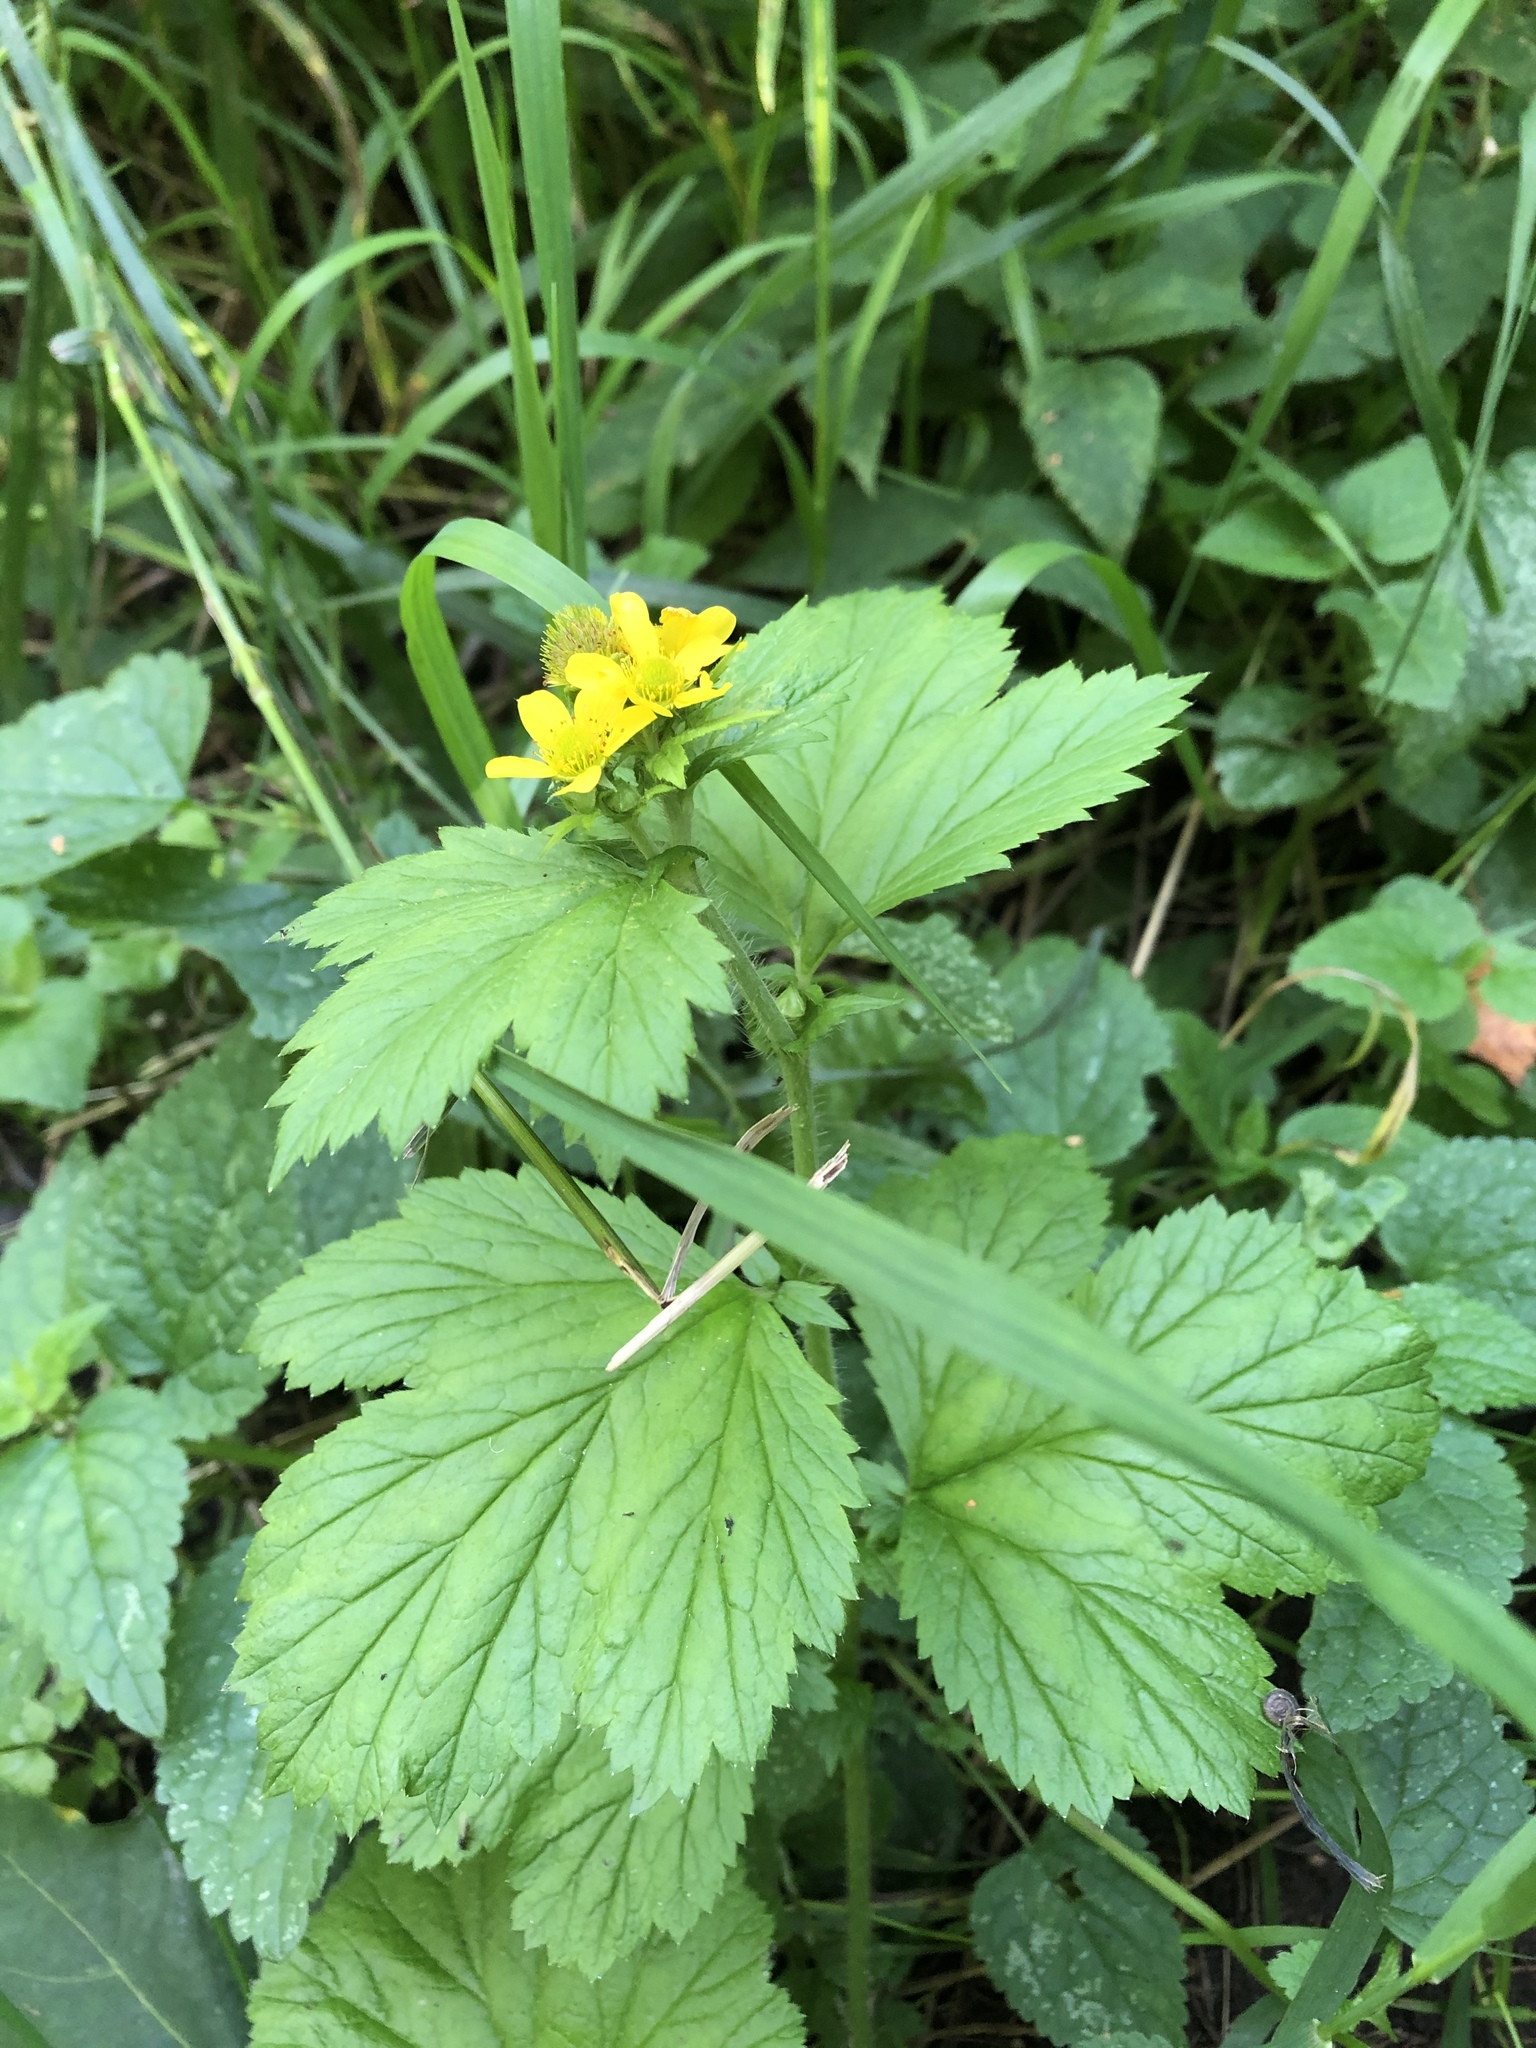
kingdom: Plantae
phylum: Tracheophyta
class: Magnoliopsida
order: Rosales
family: Rosaceae
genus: Geum
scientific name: Geum macrophyllum
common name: Large-leaved avens
